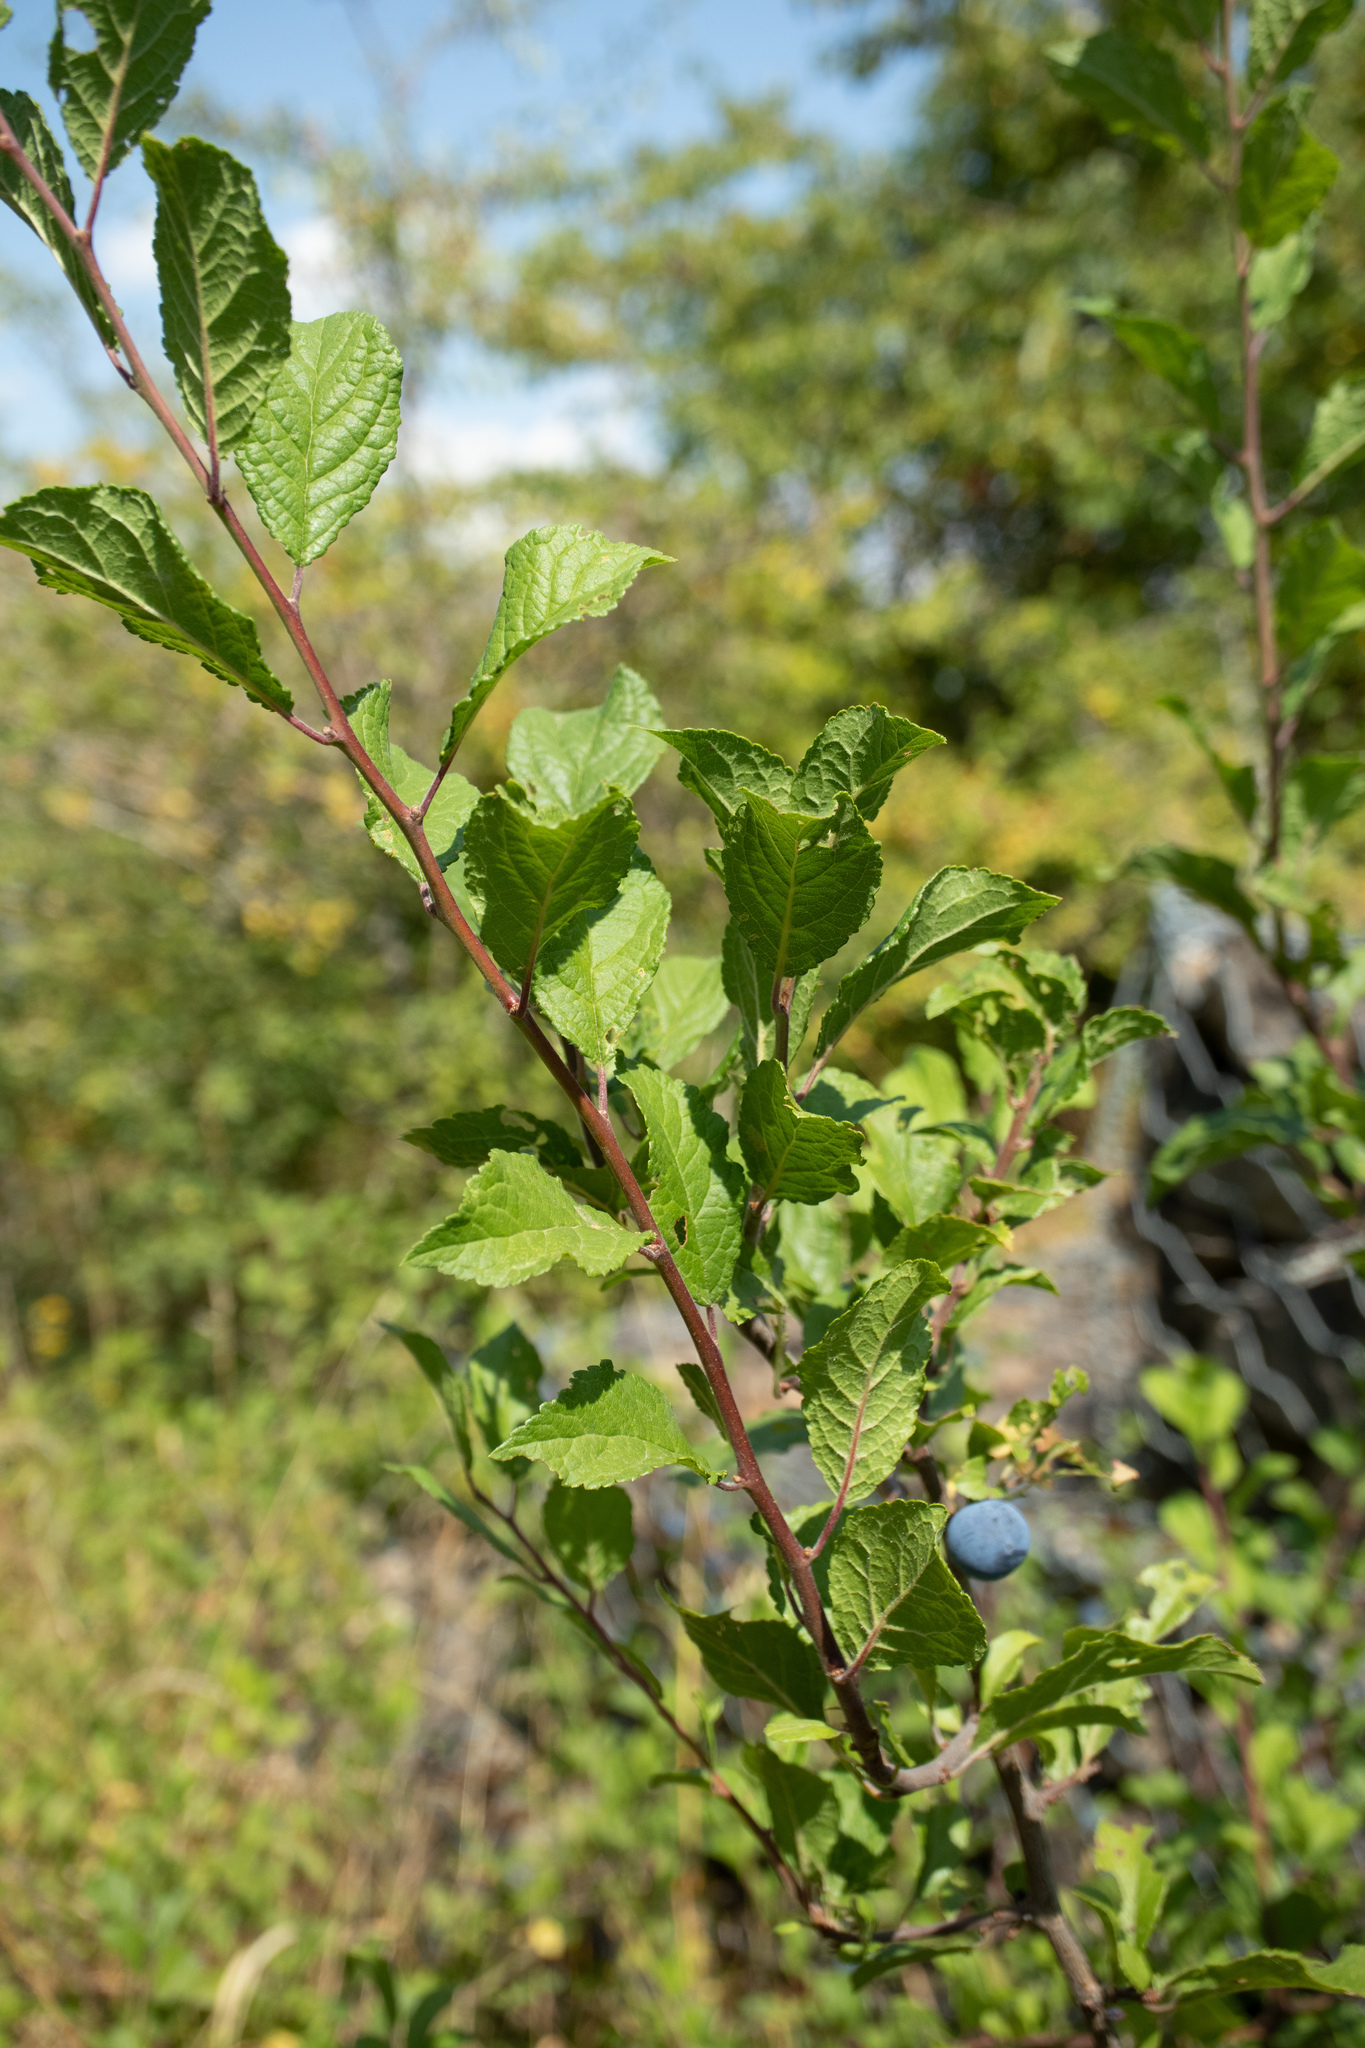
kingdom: Plantae
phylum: Tracheophyta
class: Magnoliopsida
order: Rosales
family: Rosaceae
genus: Prunus
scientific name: Prunus spinosa
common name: Blackthorn
